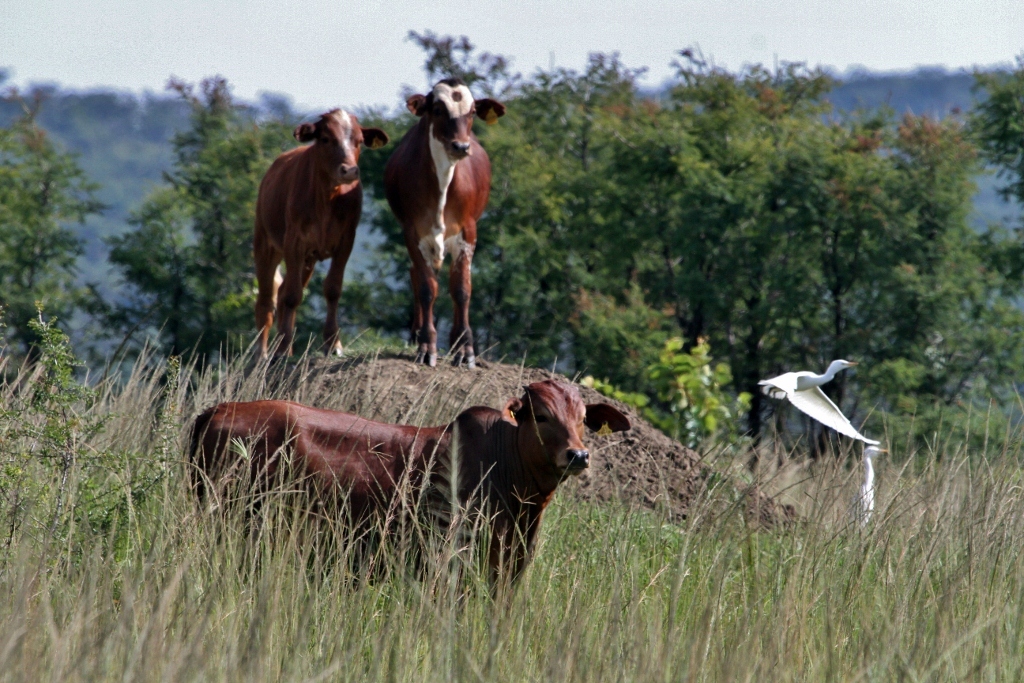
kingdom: Animalia
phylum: Chordata
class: Aves
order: Pelecaniformes
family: Ardeidae
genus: Bubulcus
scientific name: Bubulcus ibis
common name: Cattle egret
